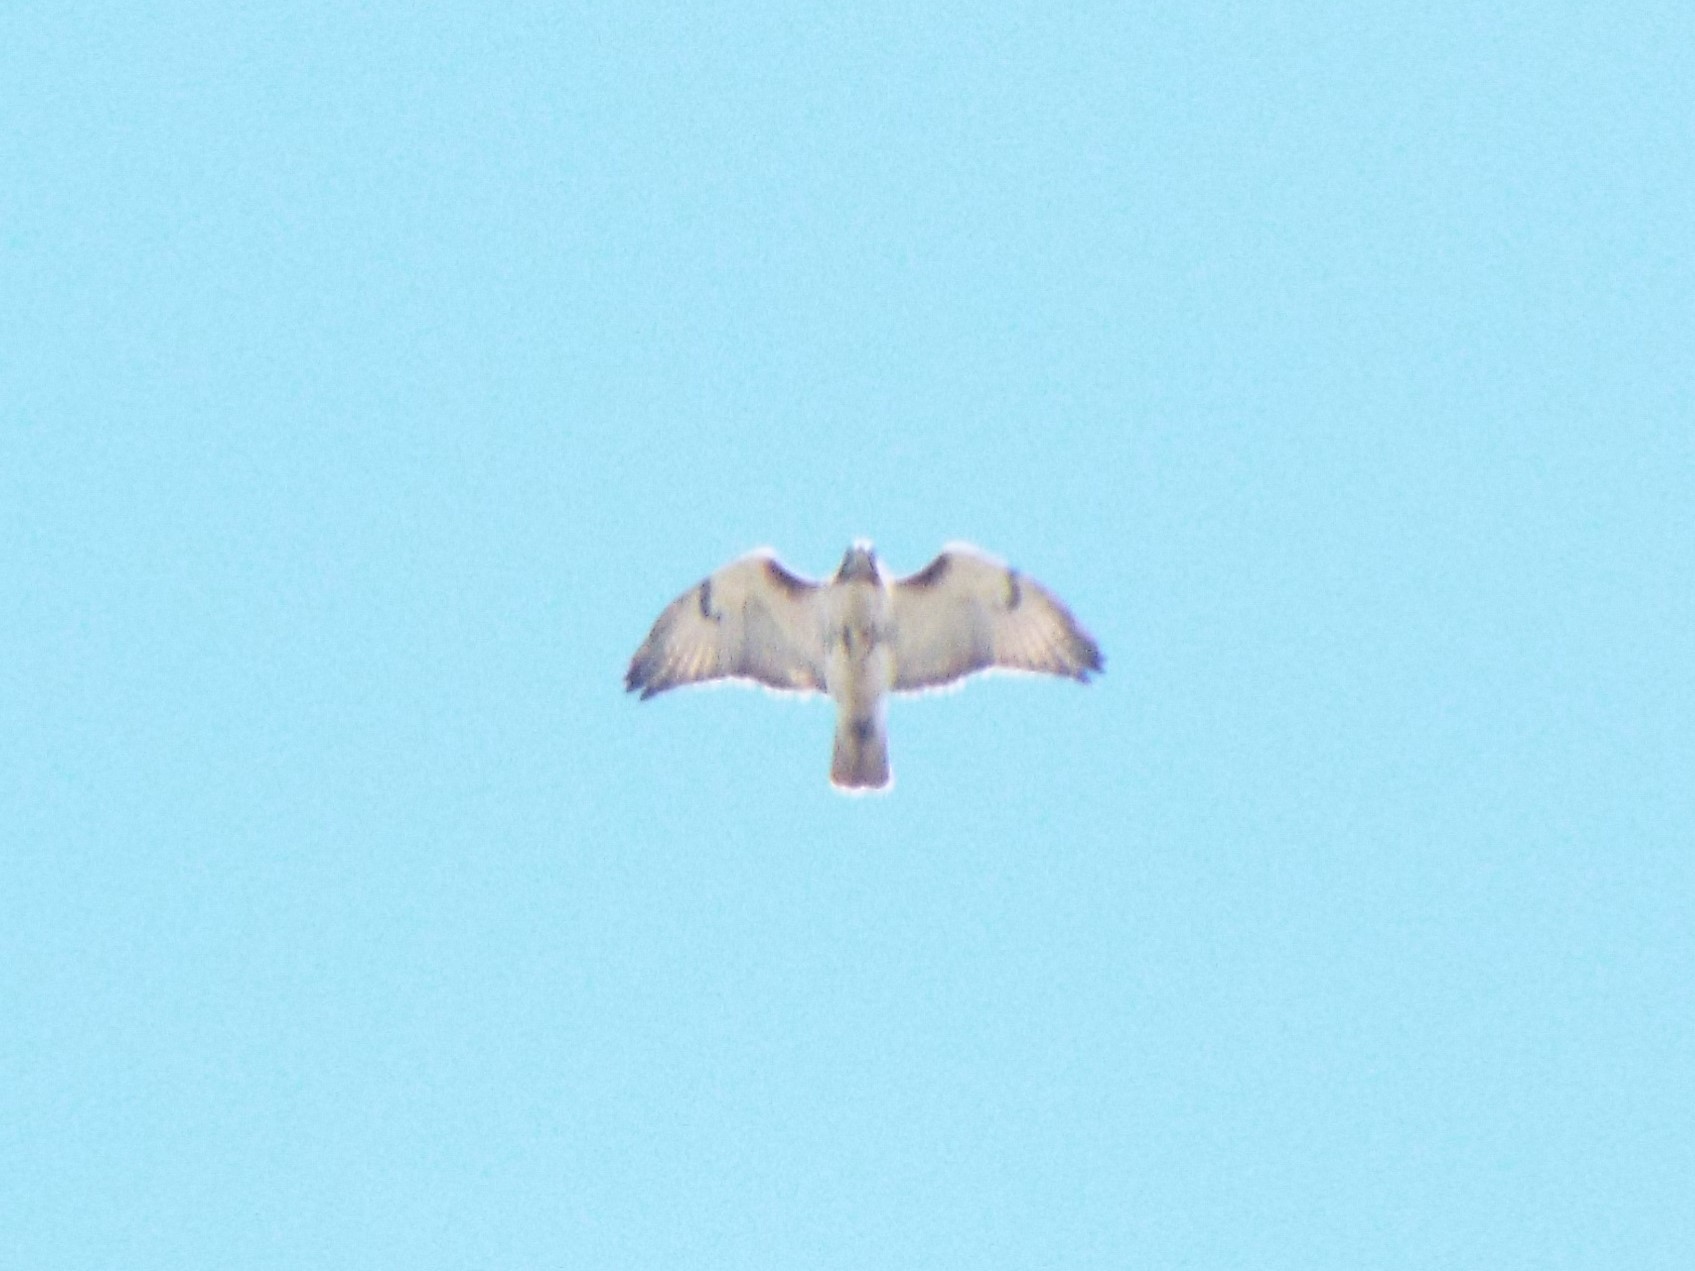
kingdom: Animalia
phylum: Chordata
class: Aves
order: Accipitriformes
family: Accipitridae
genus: Buteo
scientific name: Buteo jamaicensis
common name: Red-tailed hawk
